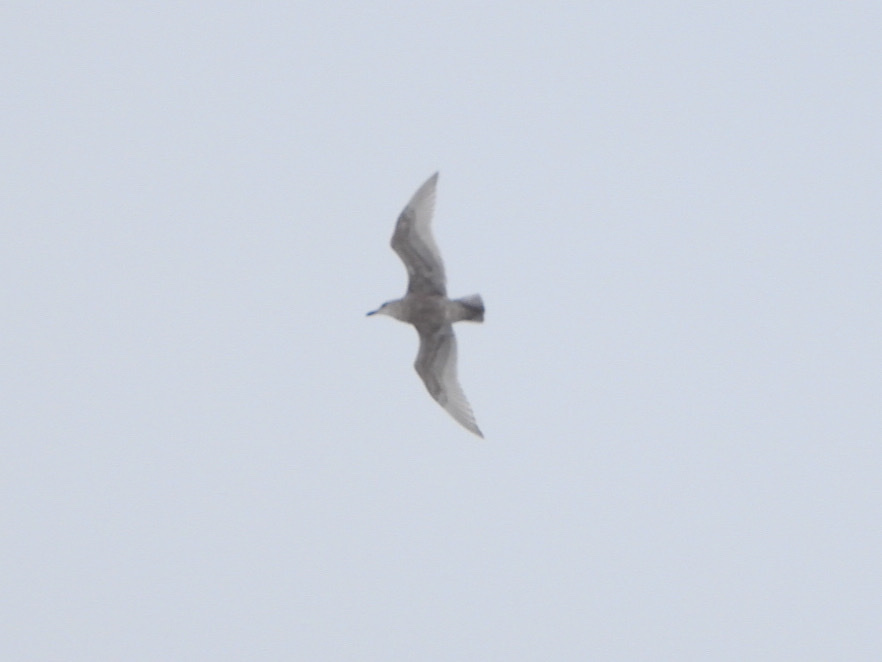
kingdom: Animalia
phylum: Chordata
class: Aves
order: Charadriiformes
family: Laridae
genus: Larus
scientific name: Larus glaucescens
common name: Glaucous-winged gull
